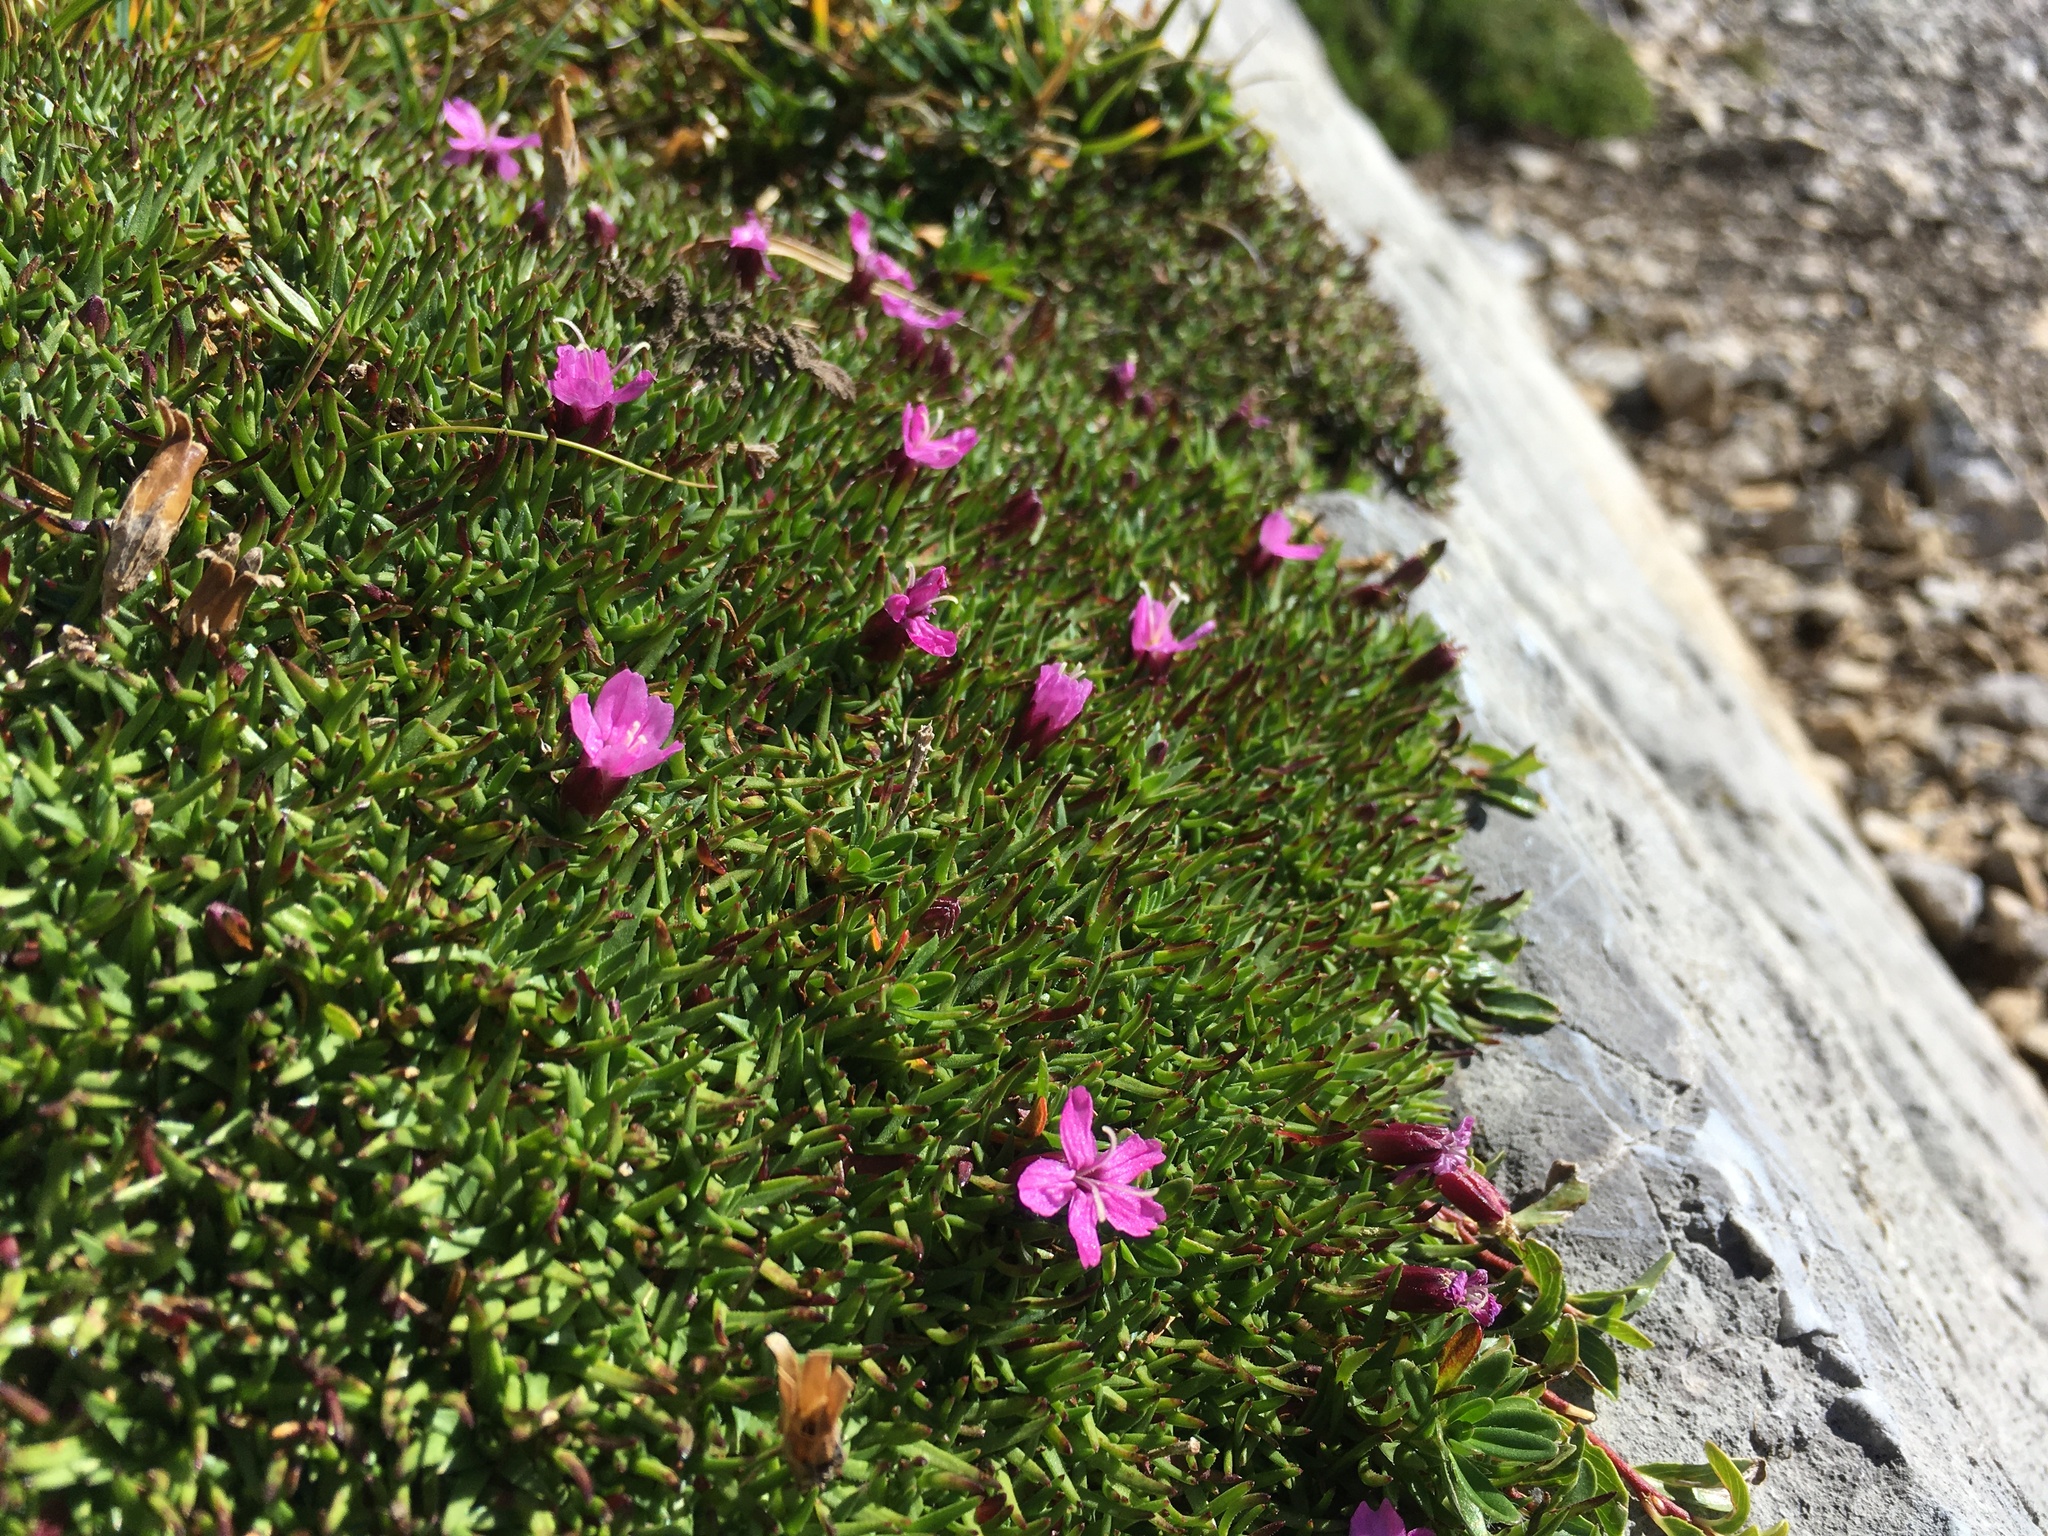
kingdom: Plantae
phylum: Tracheophyta
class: Magnoliopsida
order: Caryophyllales
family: Caryophyllaceae
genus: Silene
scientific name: Silene acaulis
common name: Moss campion
